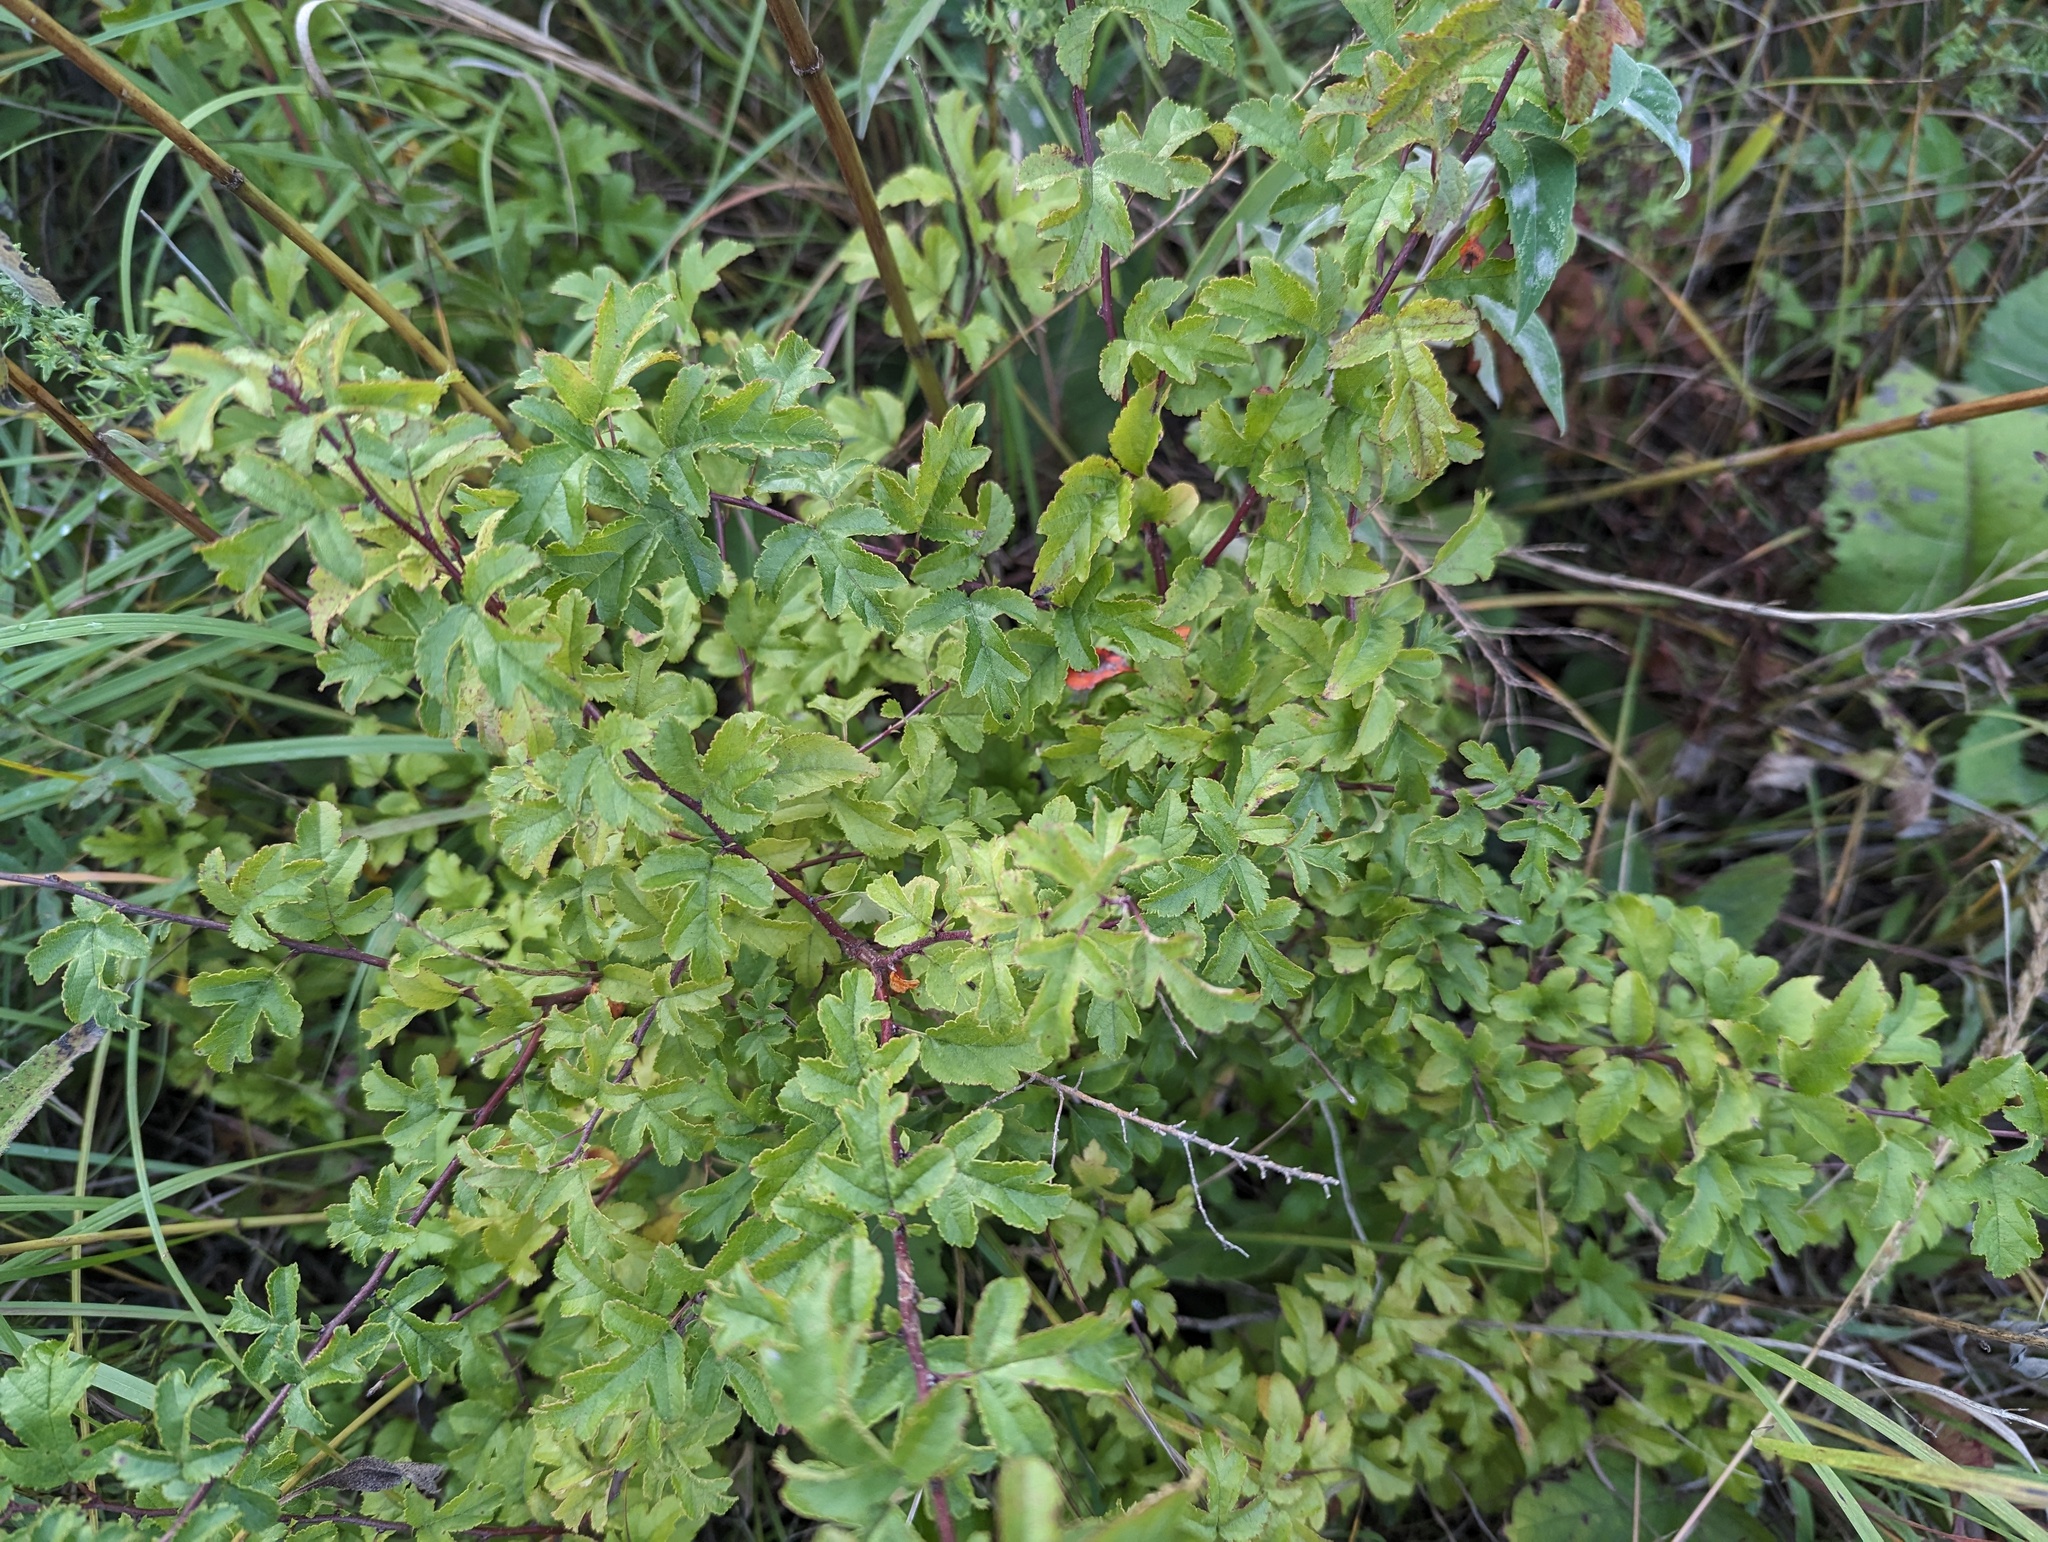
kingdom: Plantae
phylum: Tracheophyta
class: Magnoliopsida
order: Rosales
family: Rosaceae
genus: Malus
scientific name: Malus toringo
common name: Japanese crabapple
